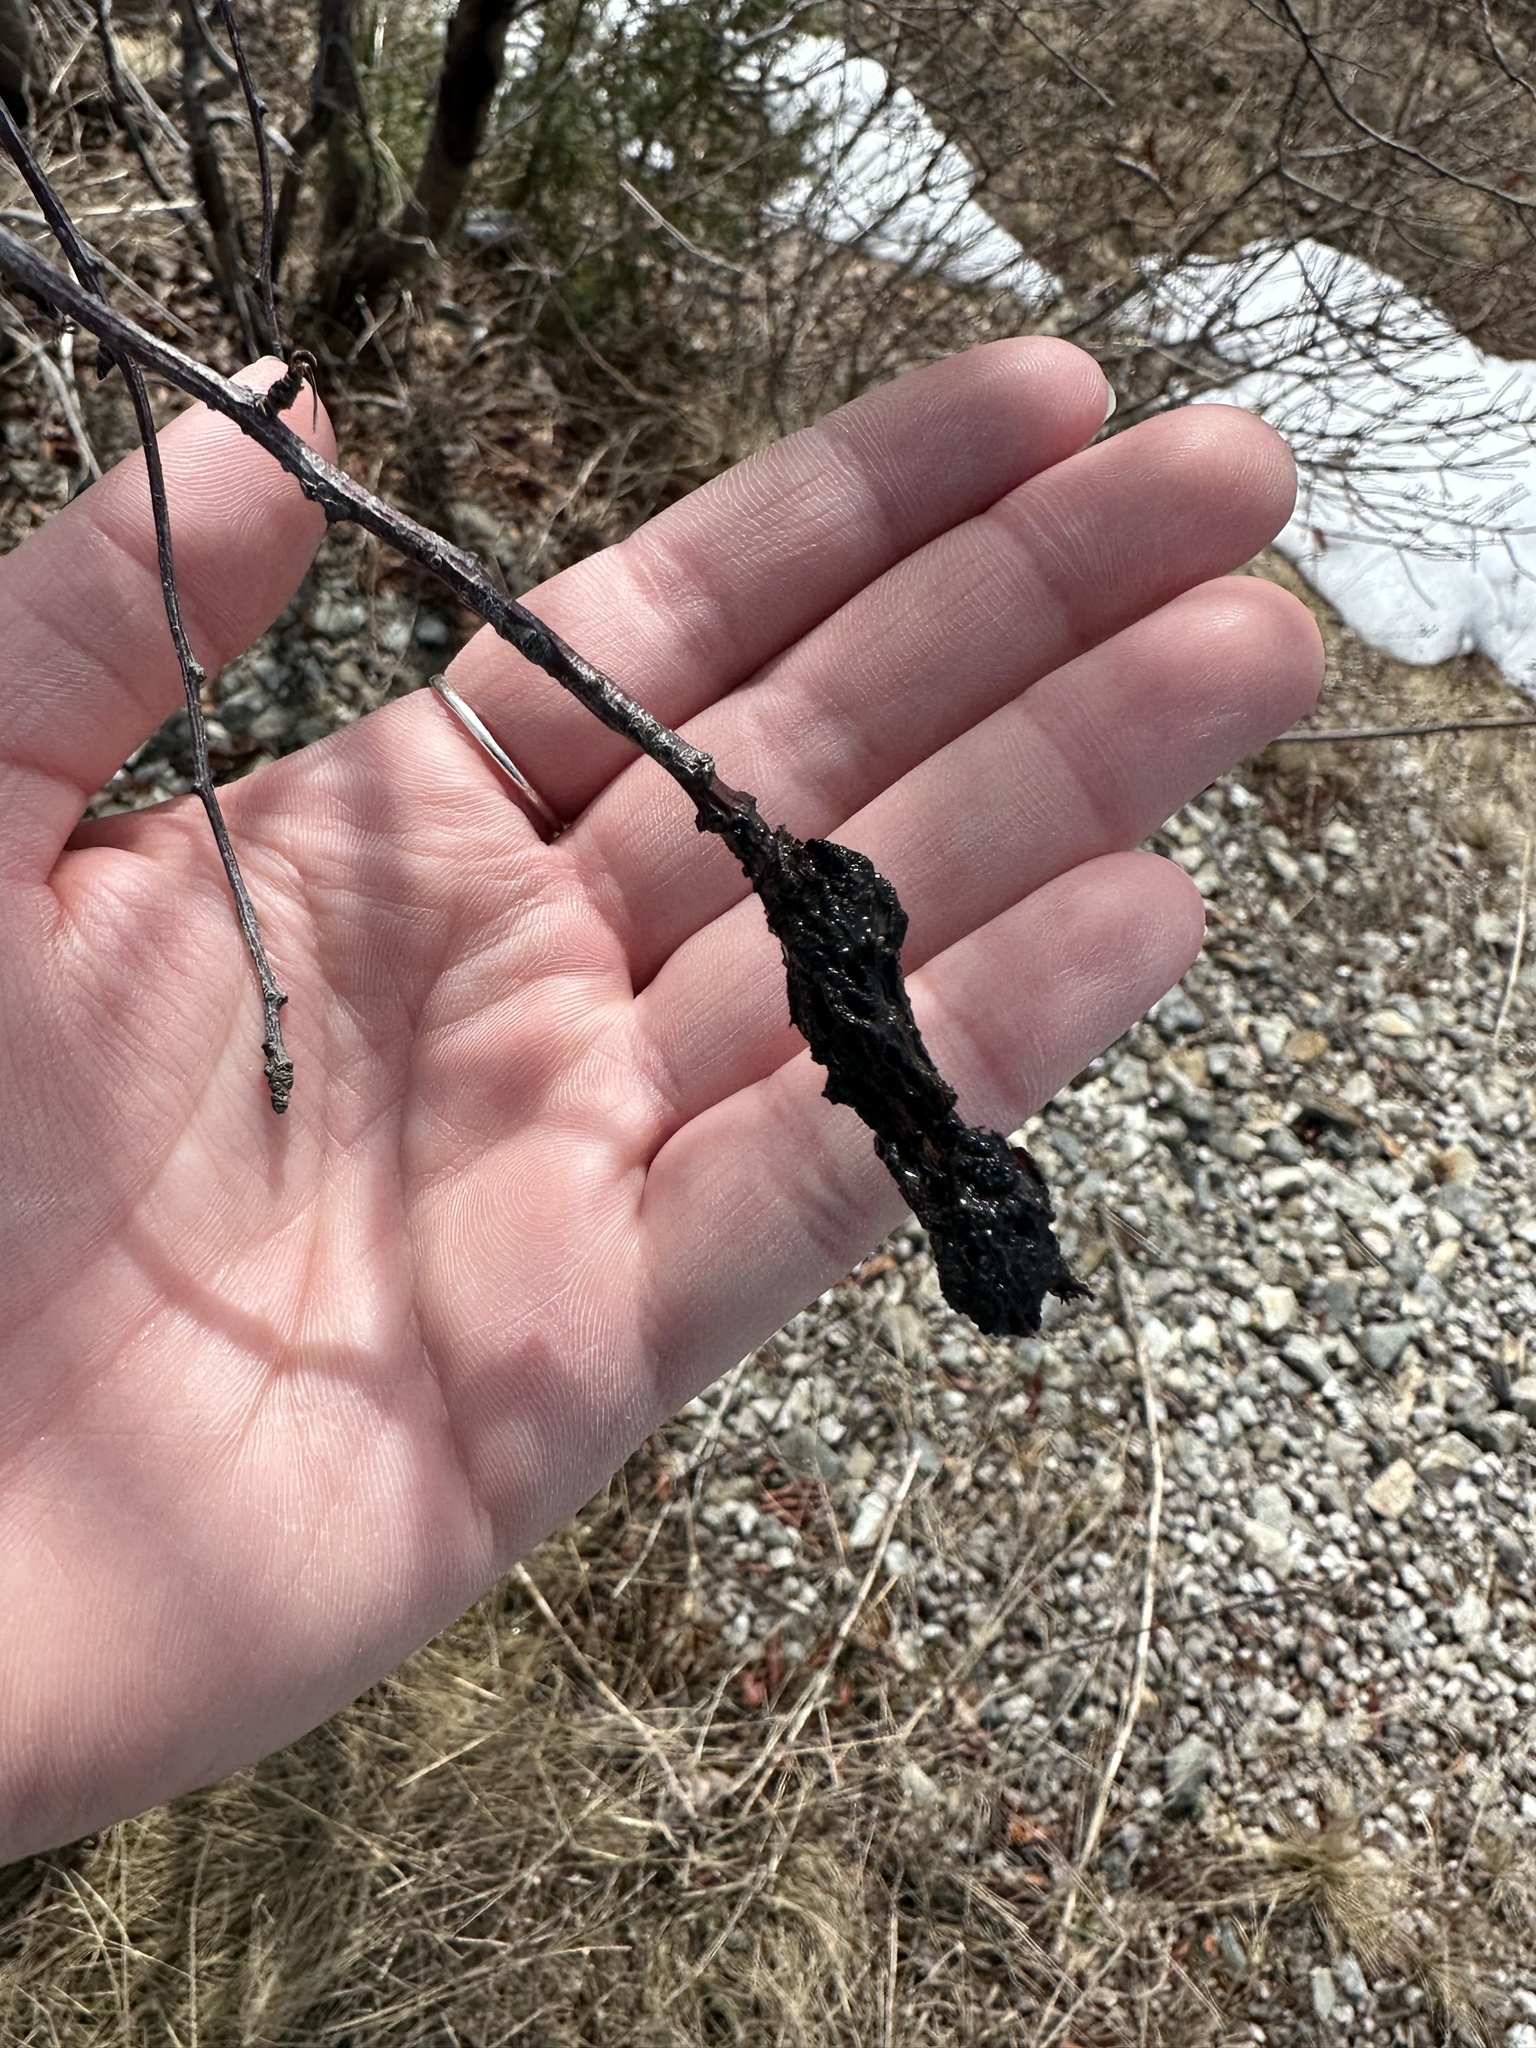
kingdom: Fungi
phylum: Ascomycota
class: Dothideomycetes
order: Venturiales
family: Venturiaceae
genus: Apiosporina
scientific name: Apiosporina morbosa
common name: Black knot
